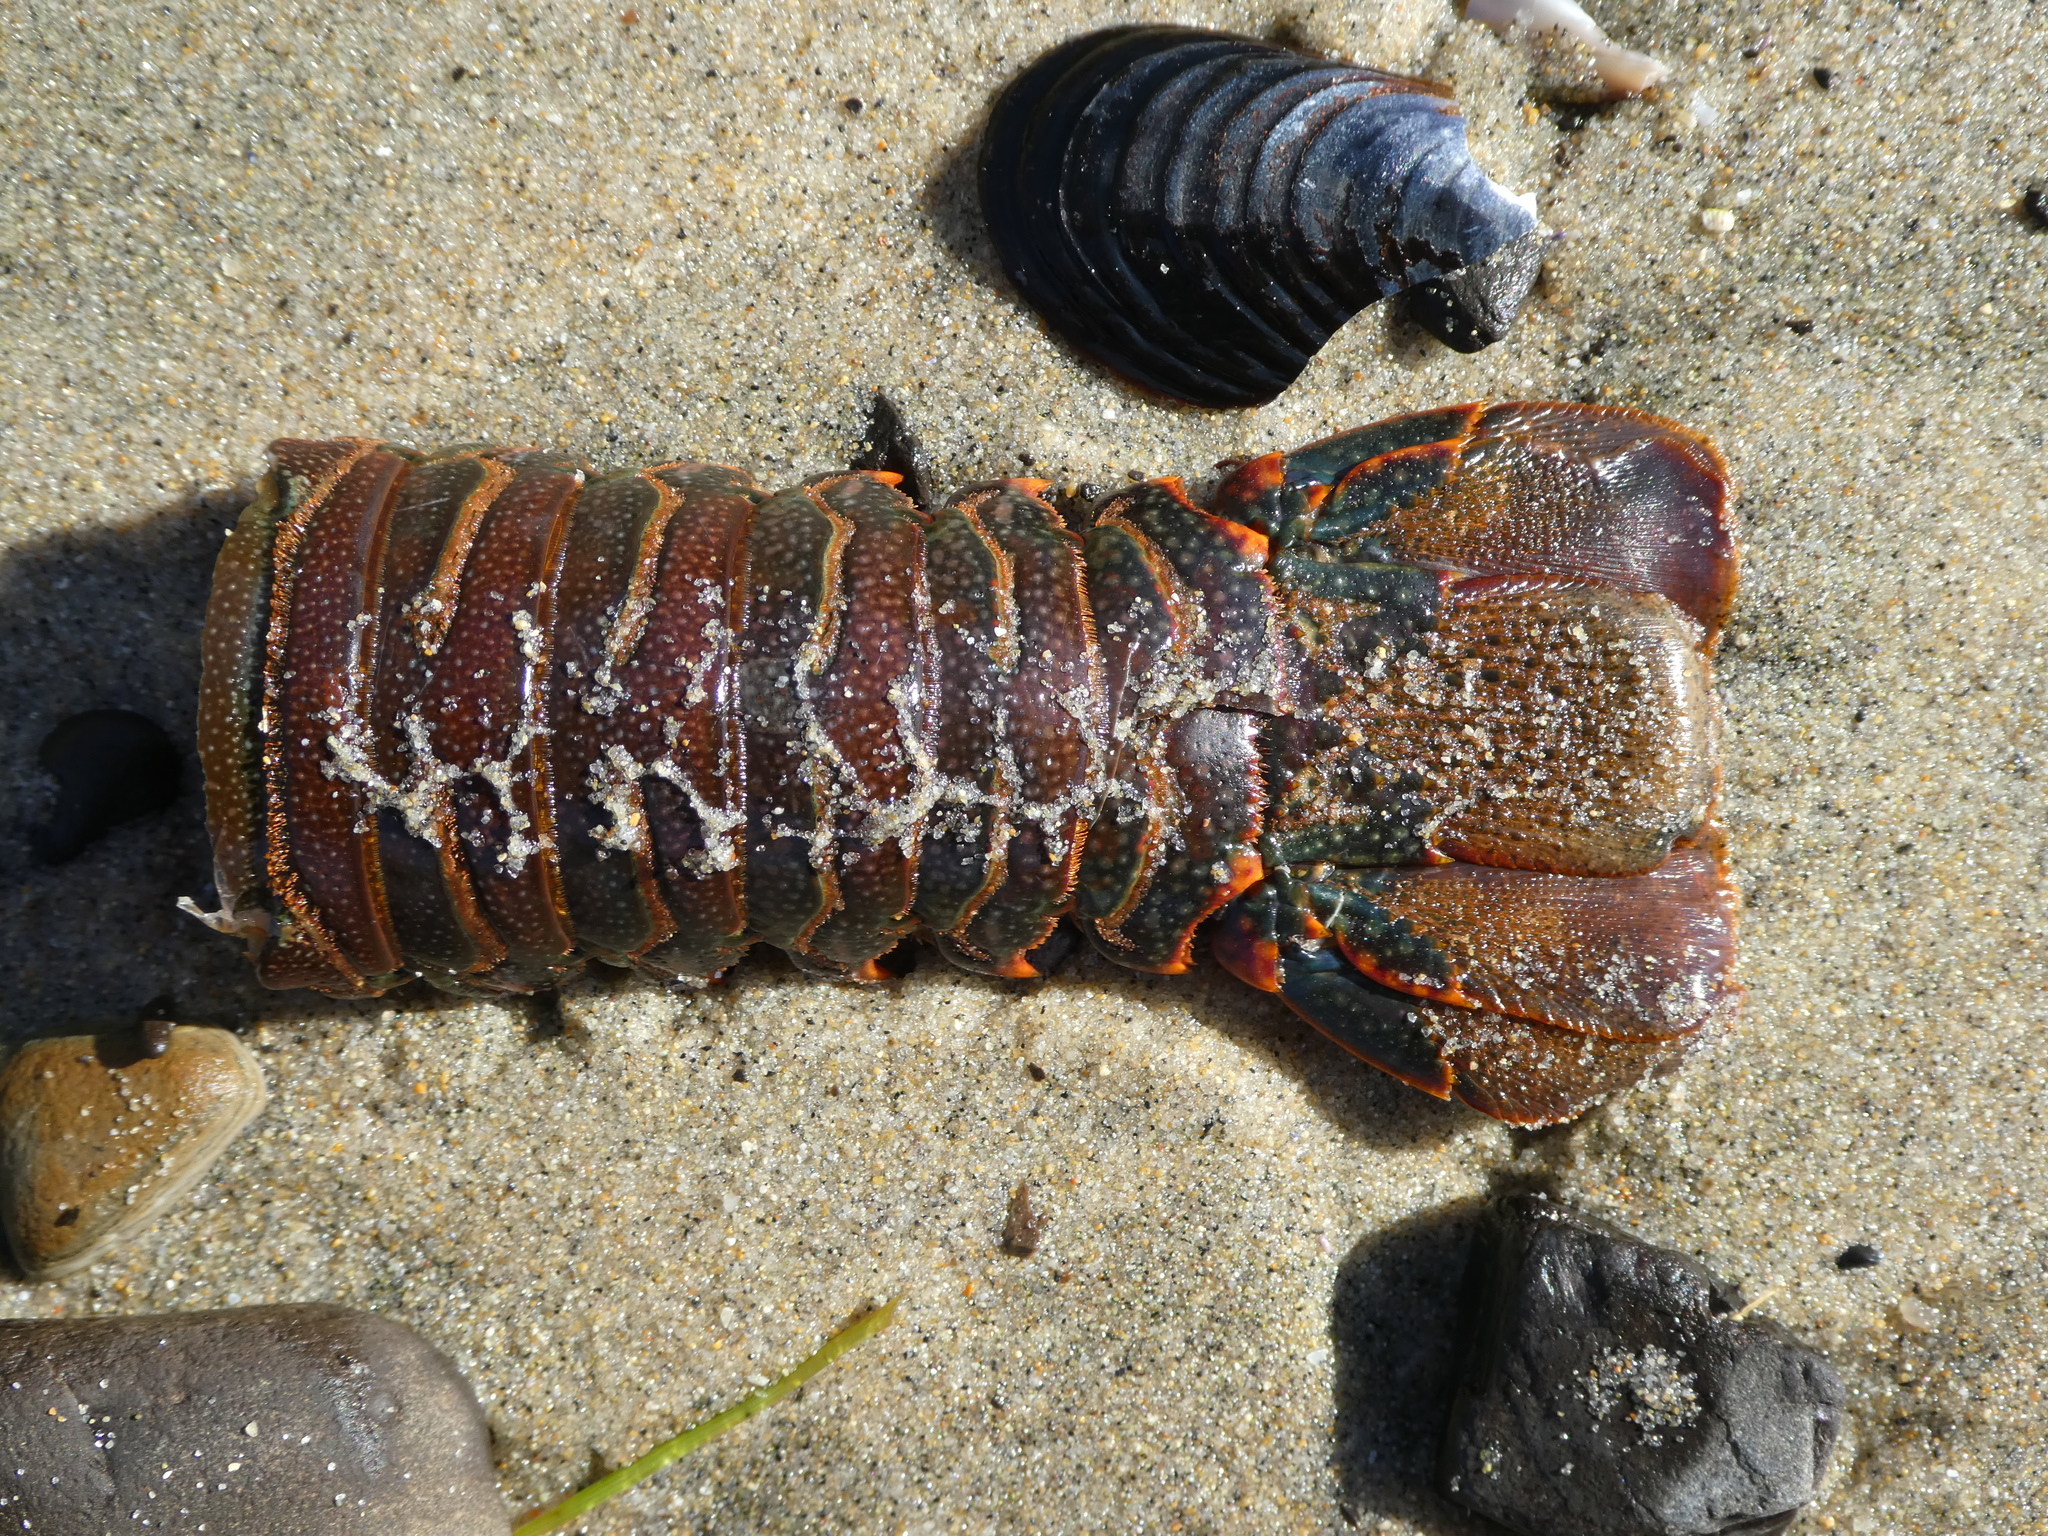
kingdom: Animalia
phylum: Arthropoda
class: Malacostraca
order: Decapoda
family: Palinuridae
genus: Panulirus
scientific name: Panulirus interruptus
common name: California spiny lobster
